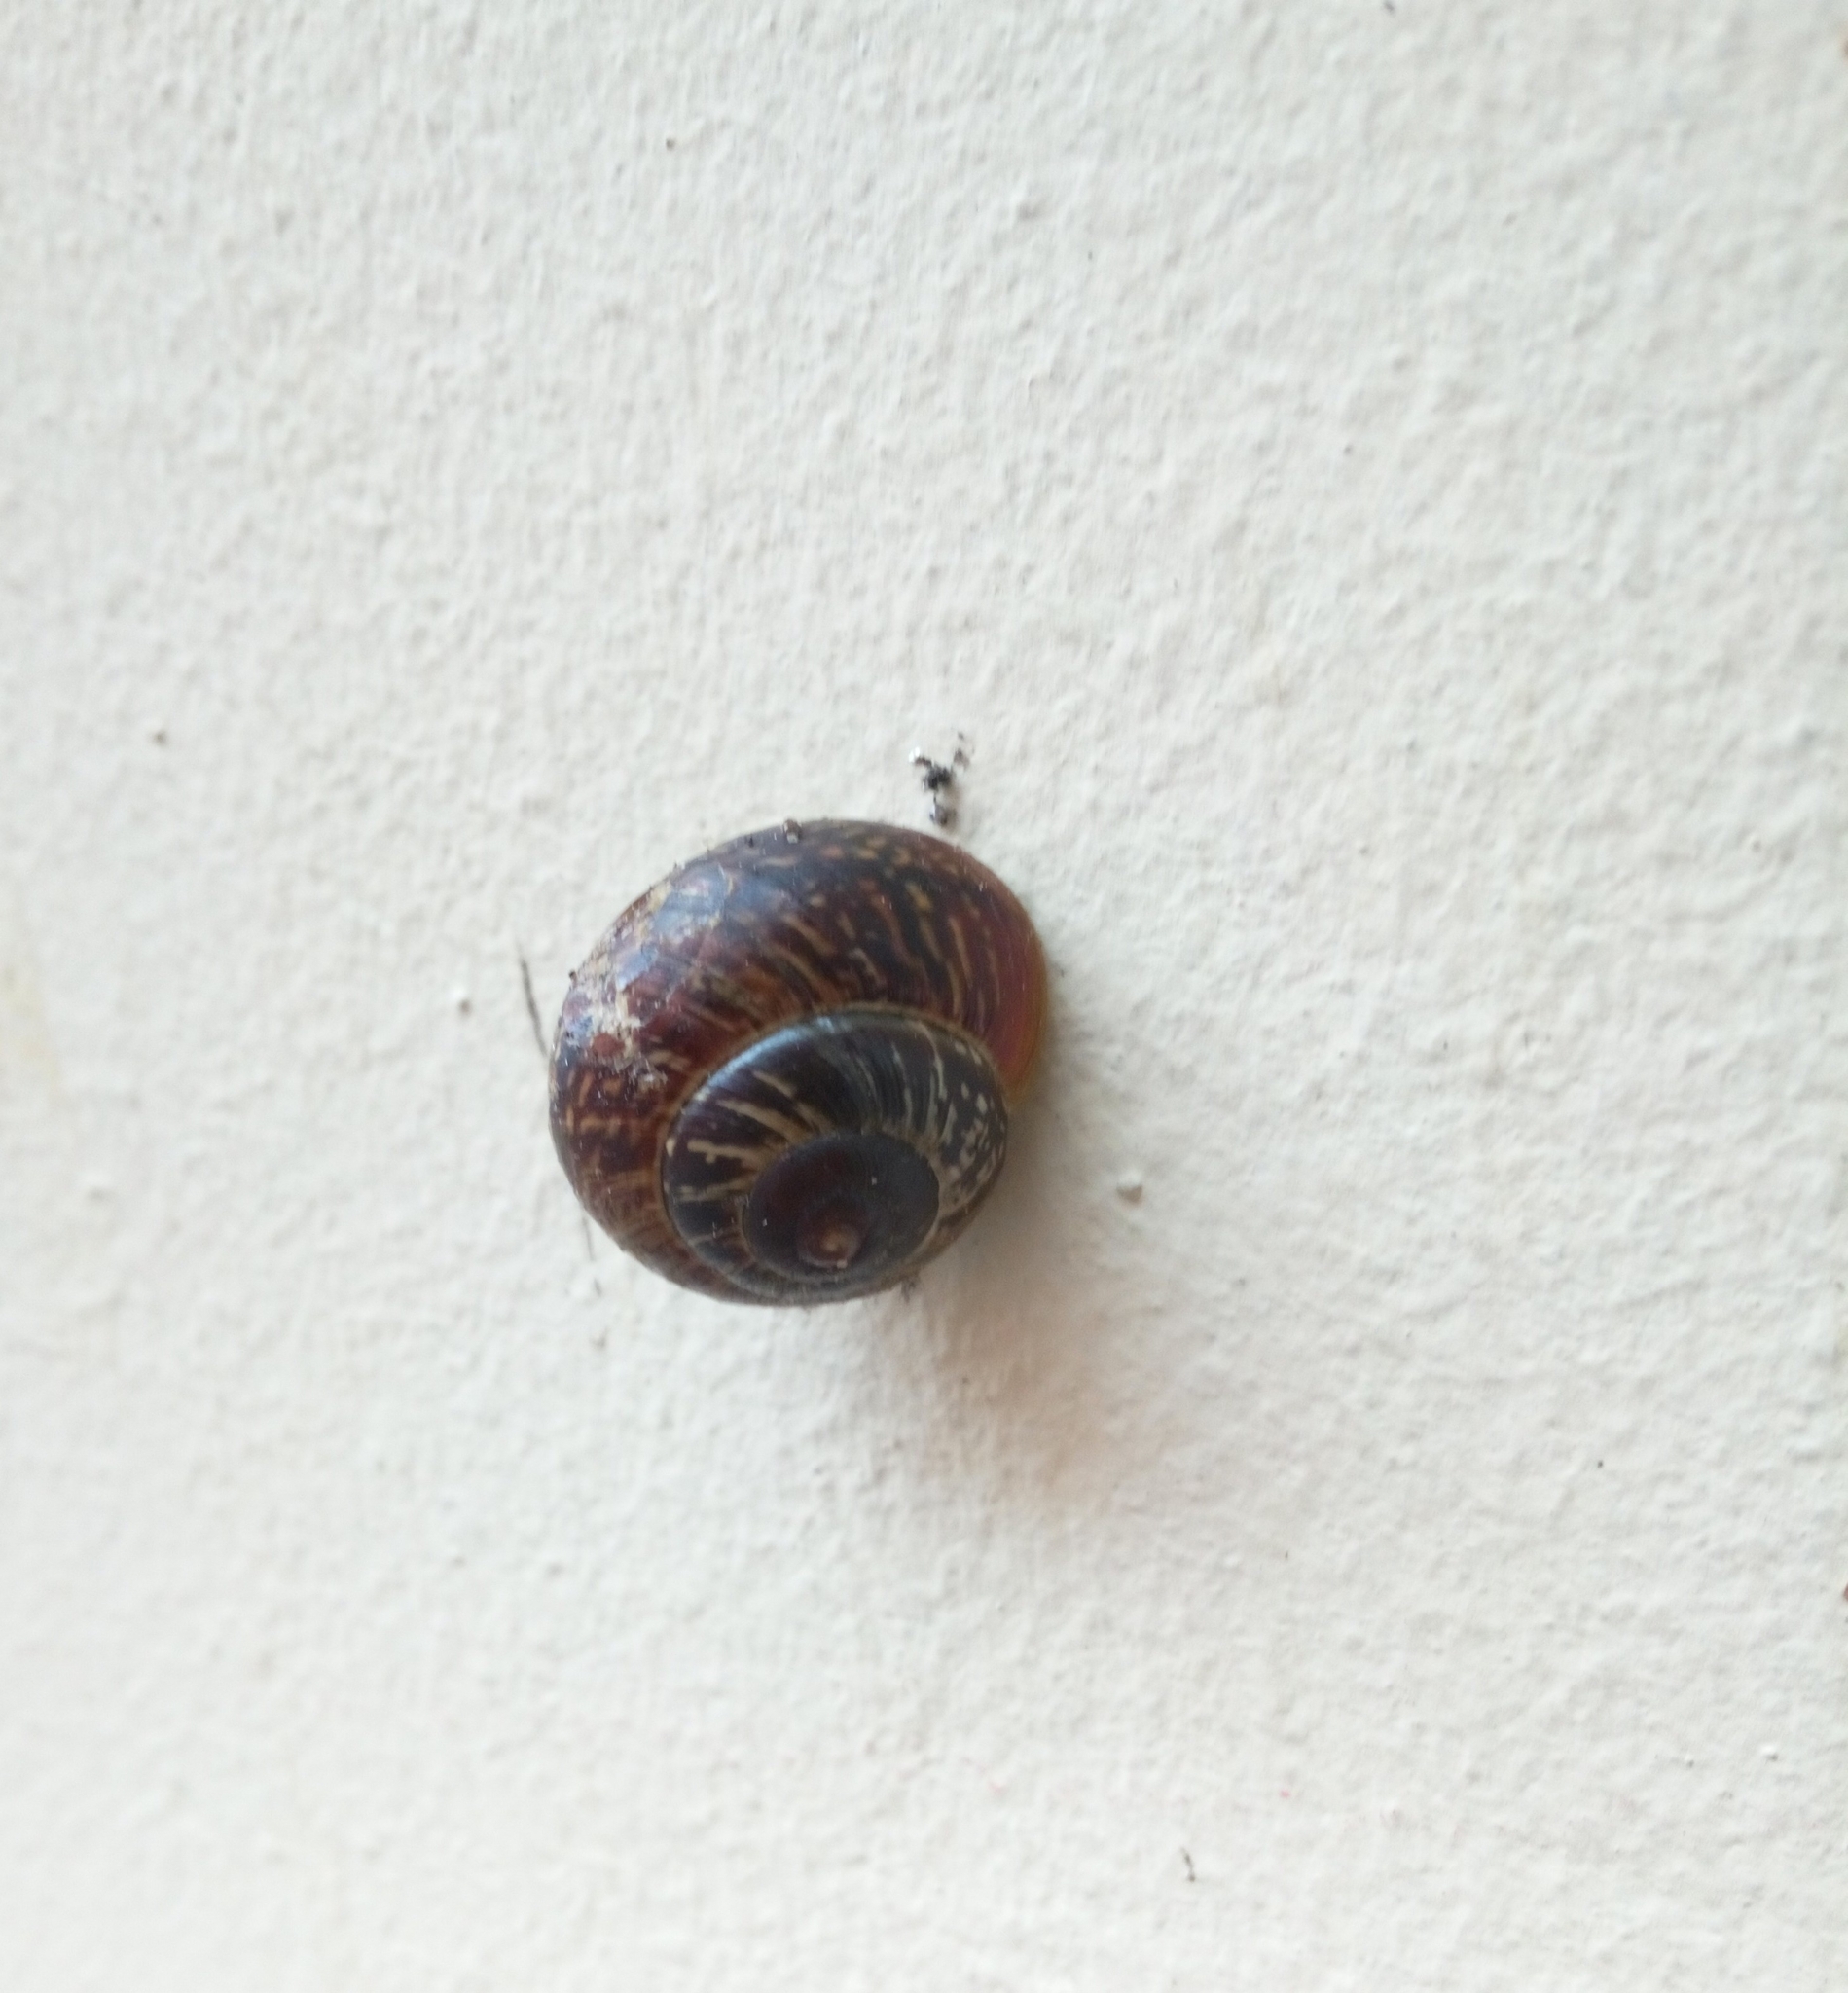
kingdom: Animalia
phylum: Mollusca
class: Gastropoda
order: Stylommatophora
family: Helicidae
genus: Arianta
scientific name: Arianta arbustorum
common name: Copse snail
